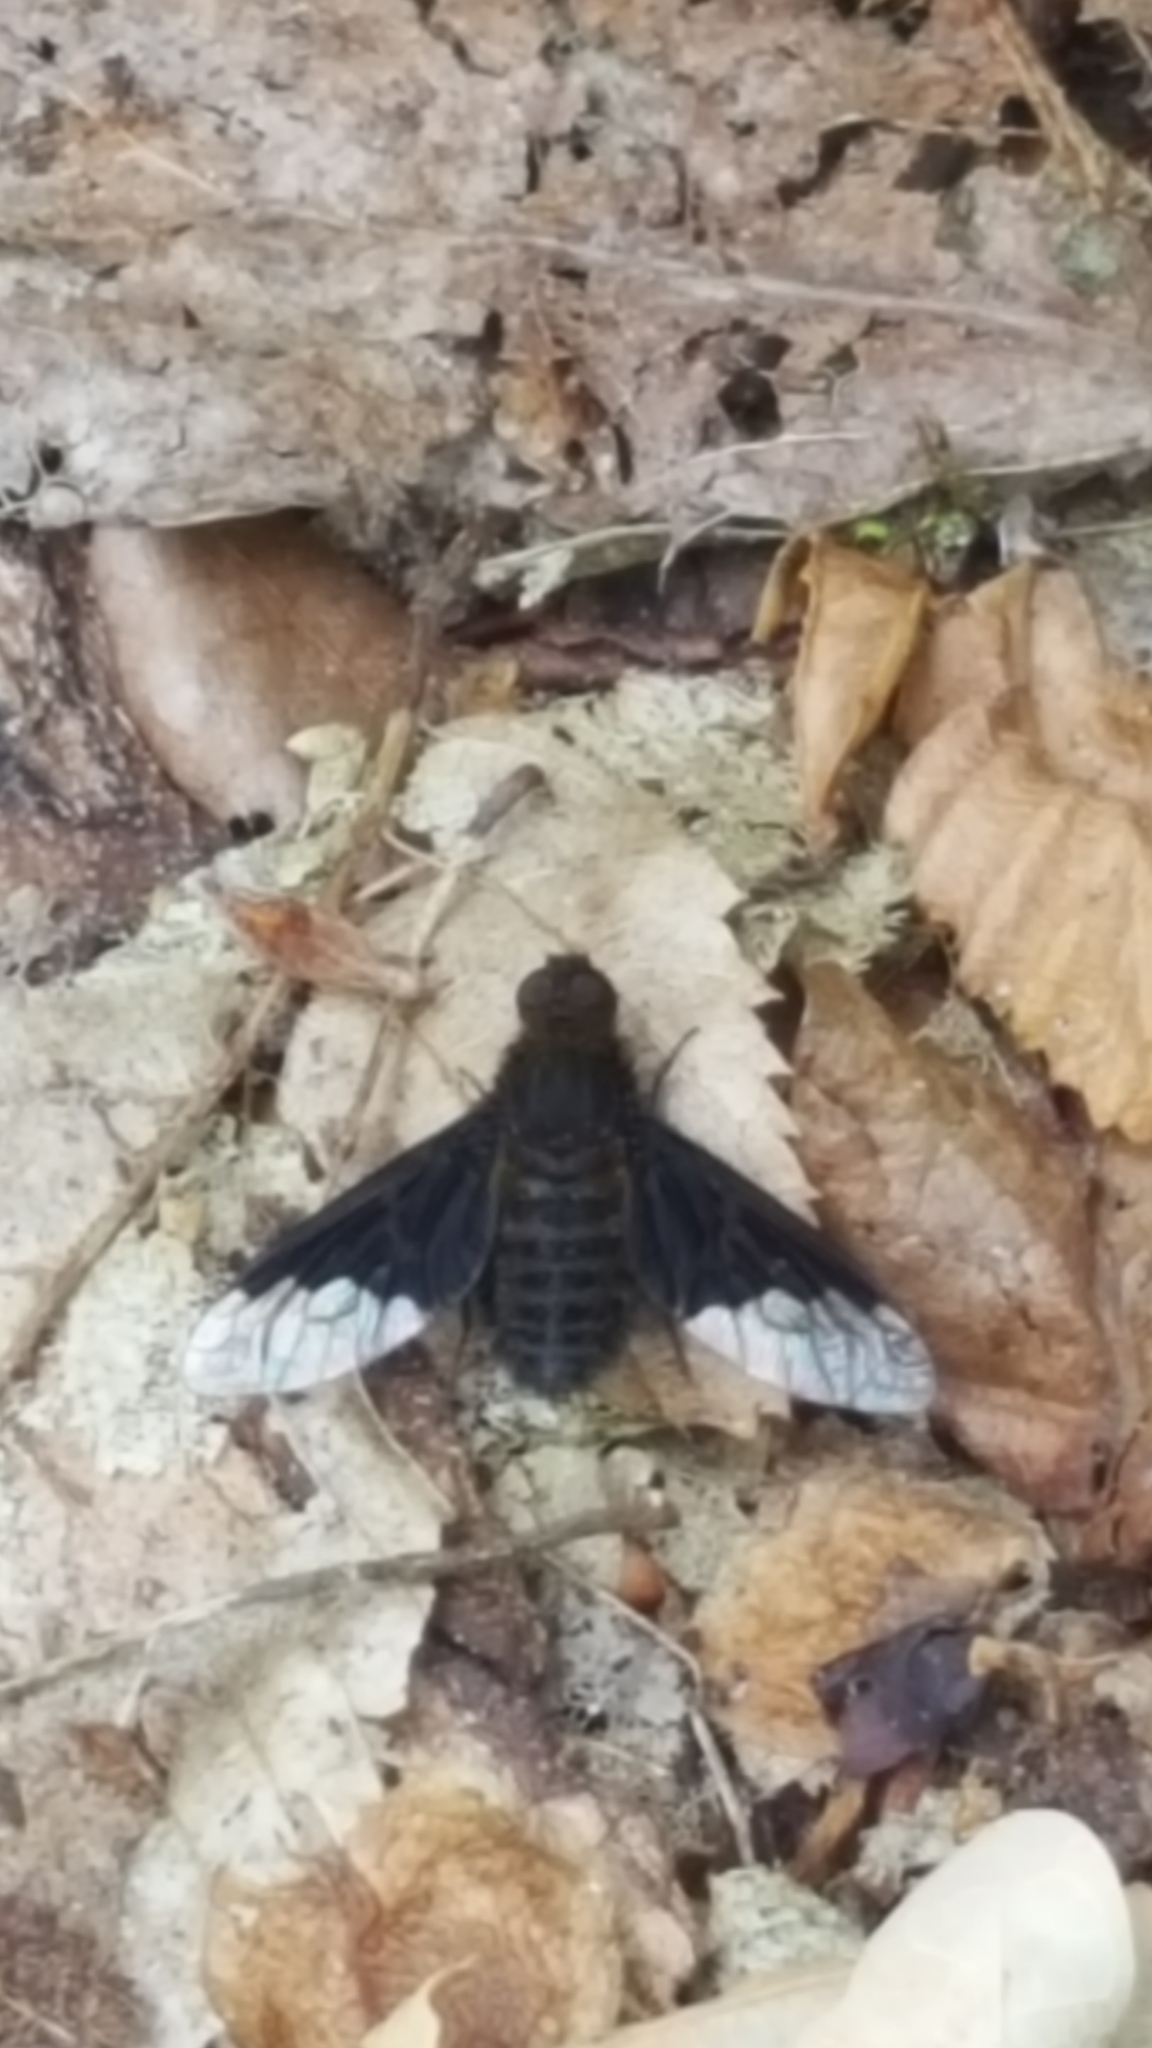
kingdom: Animalia
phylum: Arthropoda
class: Insecta
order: Diptera
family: Bombyliidae
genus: Hemipenthes
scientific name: Hemipenthes morio
